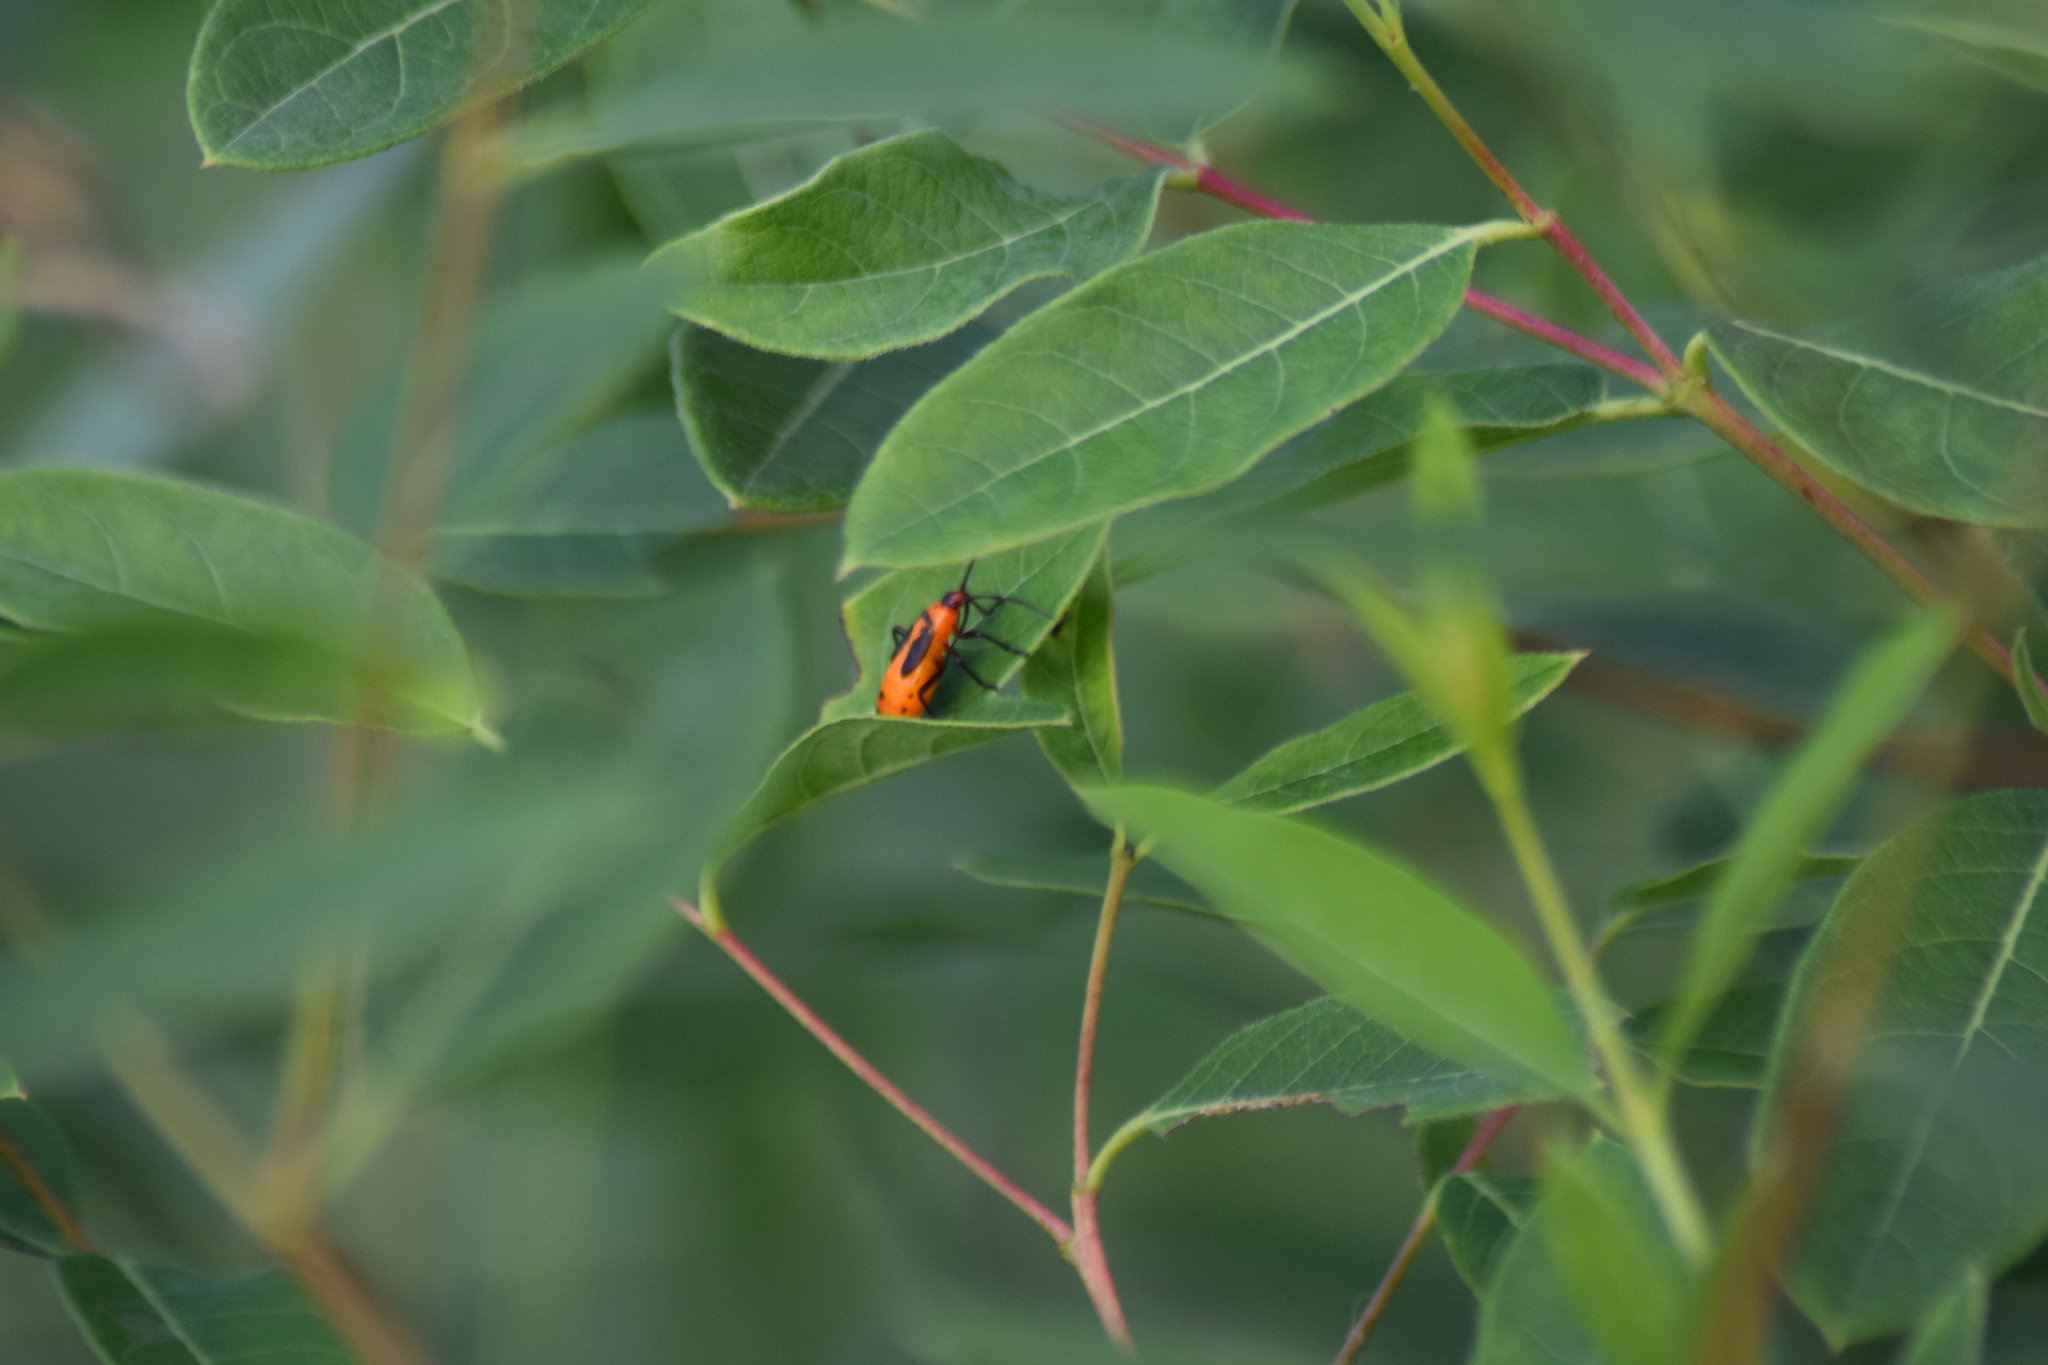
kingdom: Animalia
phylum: Arthropoda
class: Insecta
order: Hemiptera
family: Lygaeidae
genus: Oncopeltus
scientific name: Oncopeltus fasciatus
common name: Large milkweed bug
